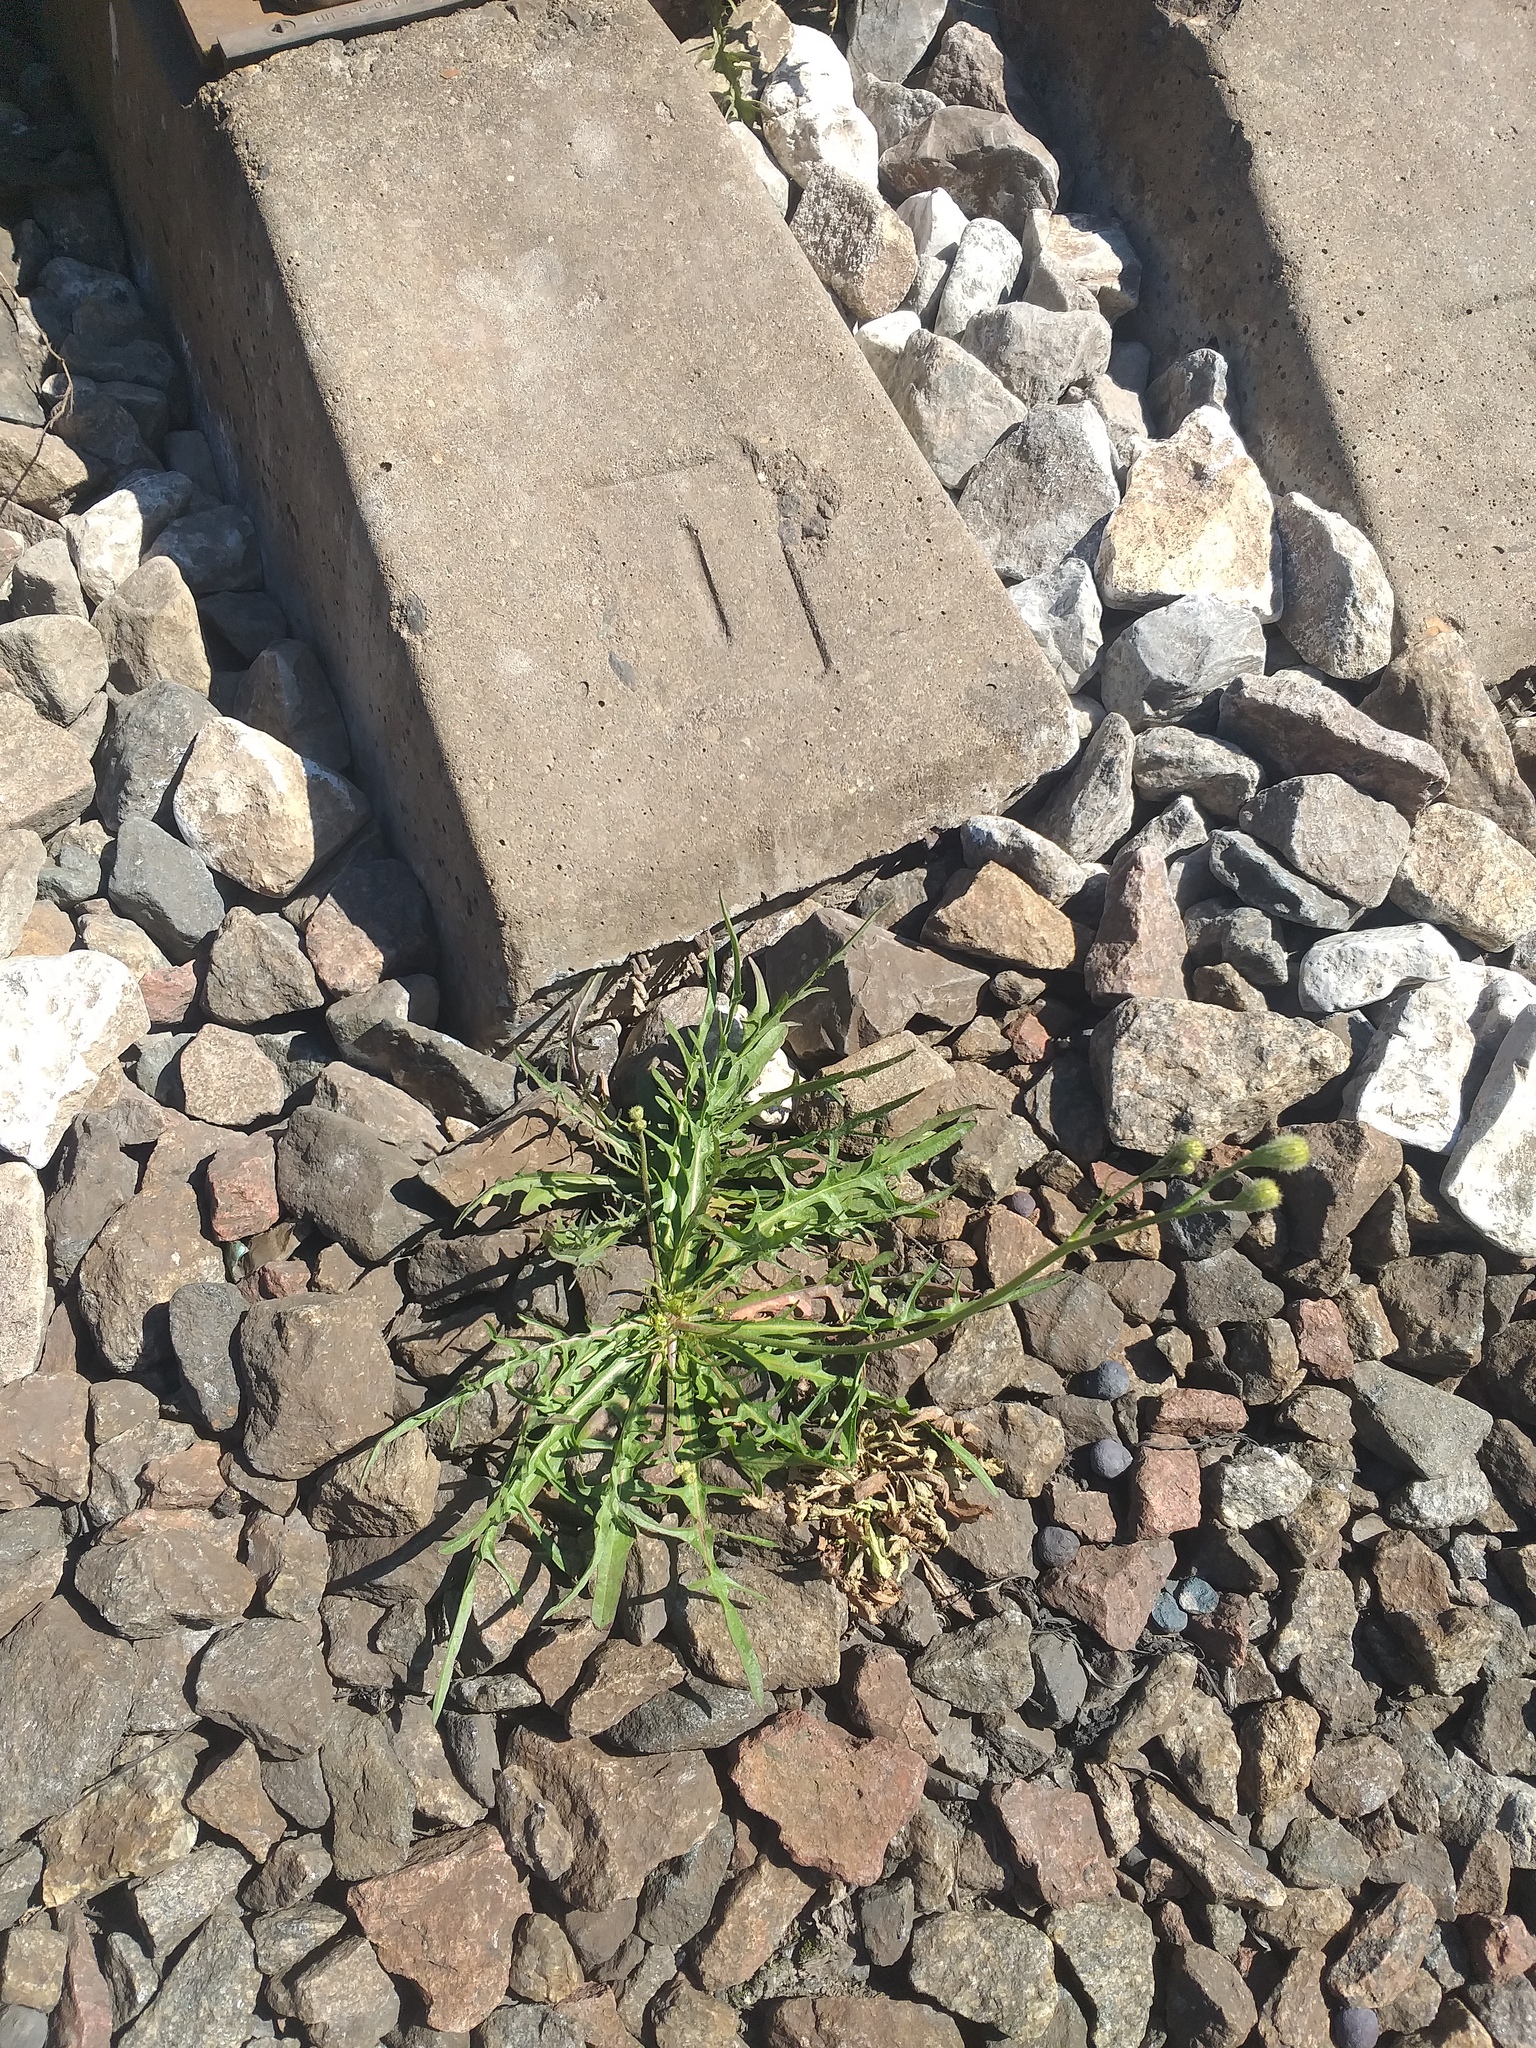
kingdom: Plantae
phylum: Tracheophyta
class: Magnoliopsida
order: Asterales
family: Asteraceae
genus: Scorzoneroides
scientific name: Scorzoneroides autumnalis
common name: Autumn hawkbit
